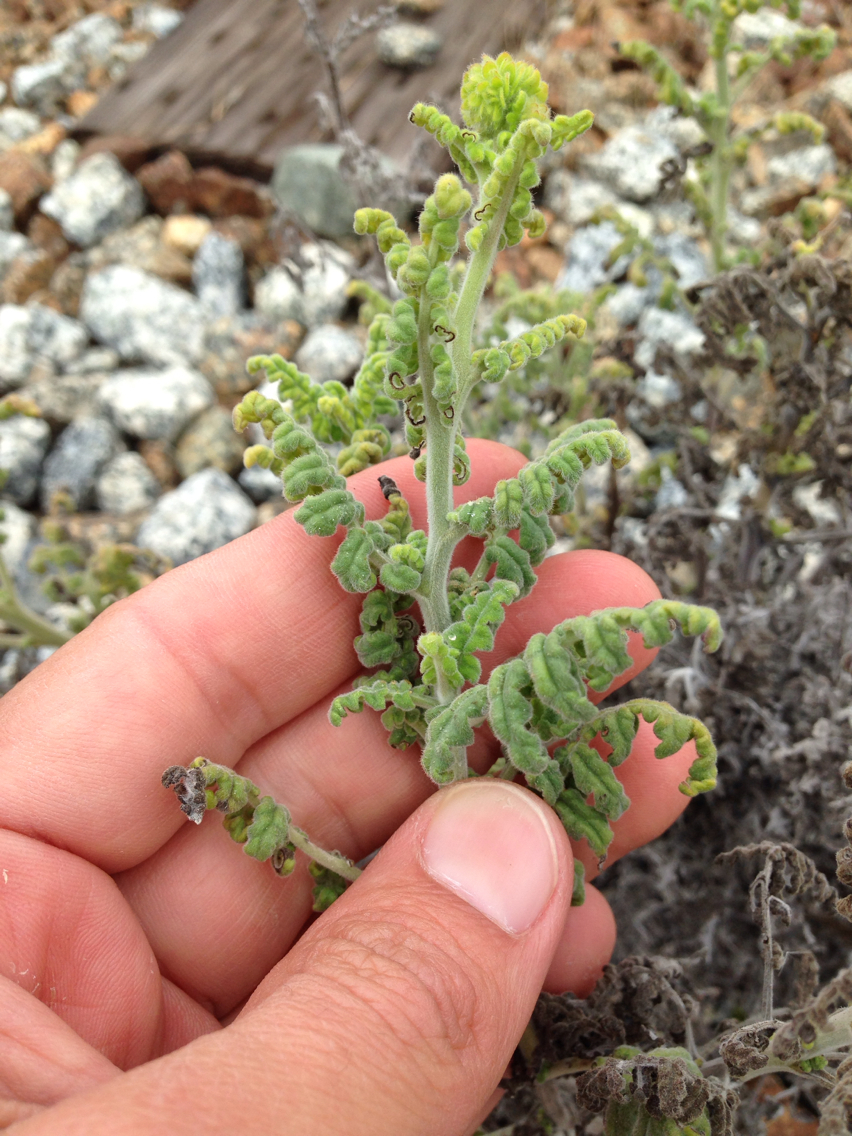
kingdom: Plantae
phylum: Tracheophyta
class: Magnoliopsida
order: Boraginales
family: Hydrophyllaceae
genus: Phacelia
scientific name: Phacelia ramosissima
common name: Branching phacelia
